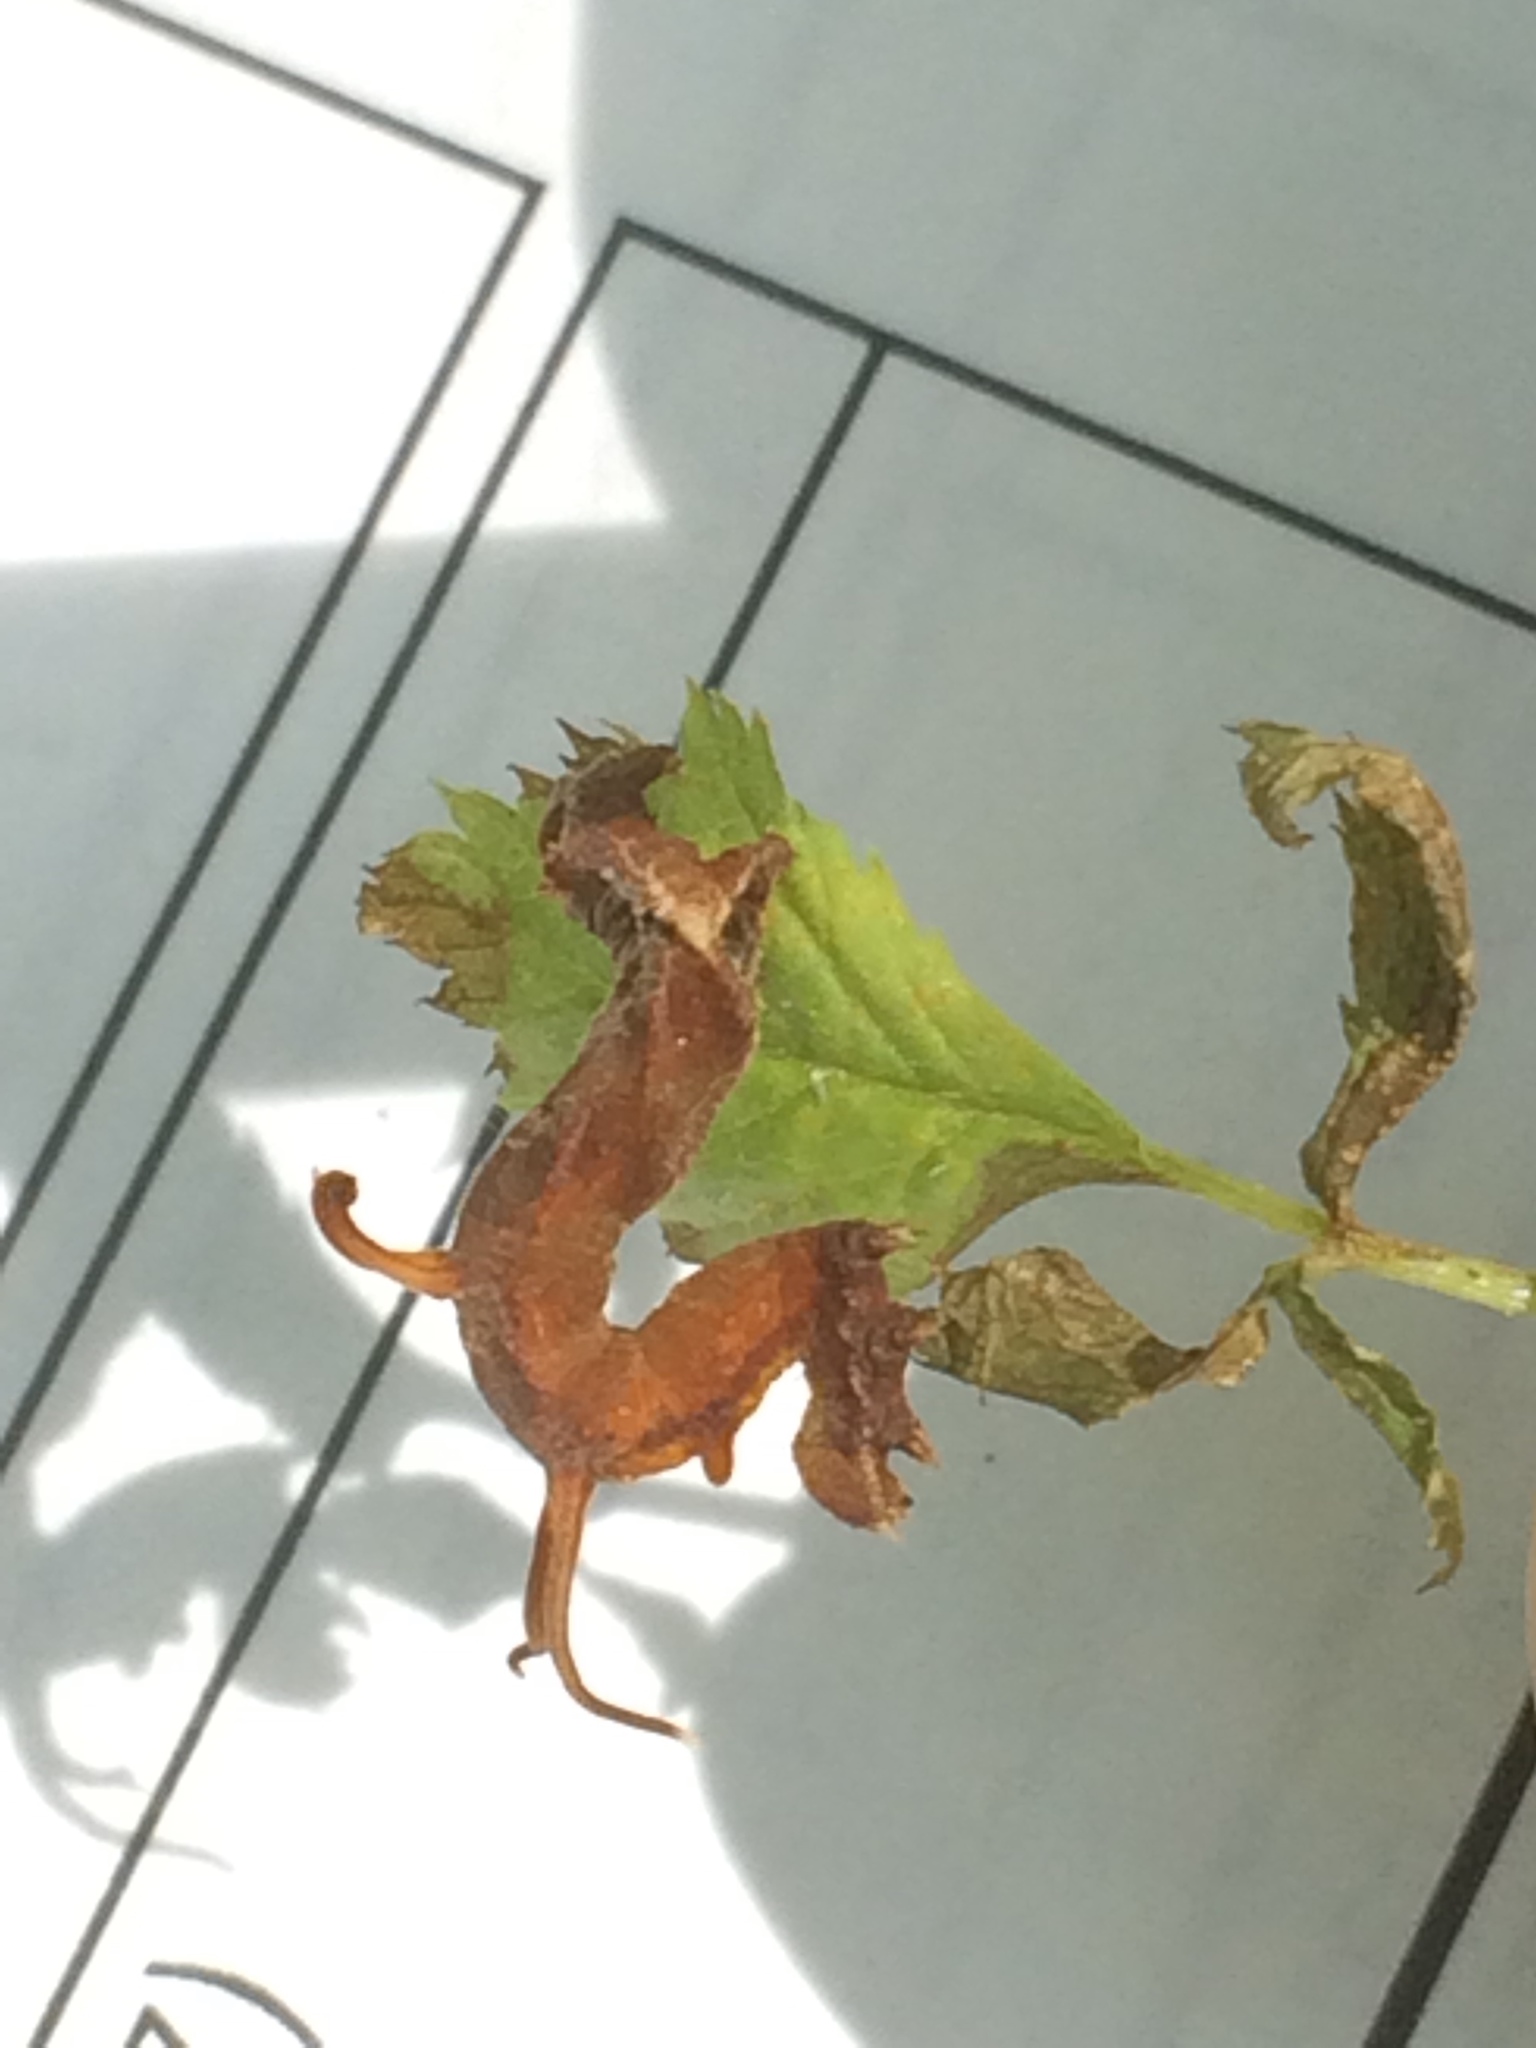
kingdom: Animalia
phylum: Arthropoda
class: Insecta
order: Lepidoptera
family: Geometridae
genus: Nematocampa
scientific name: Nematocampa resistaria
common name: Horned spanworm moth
